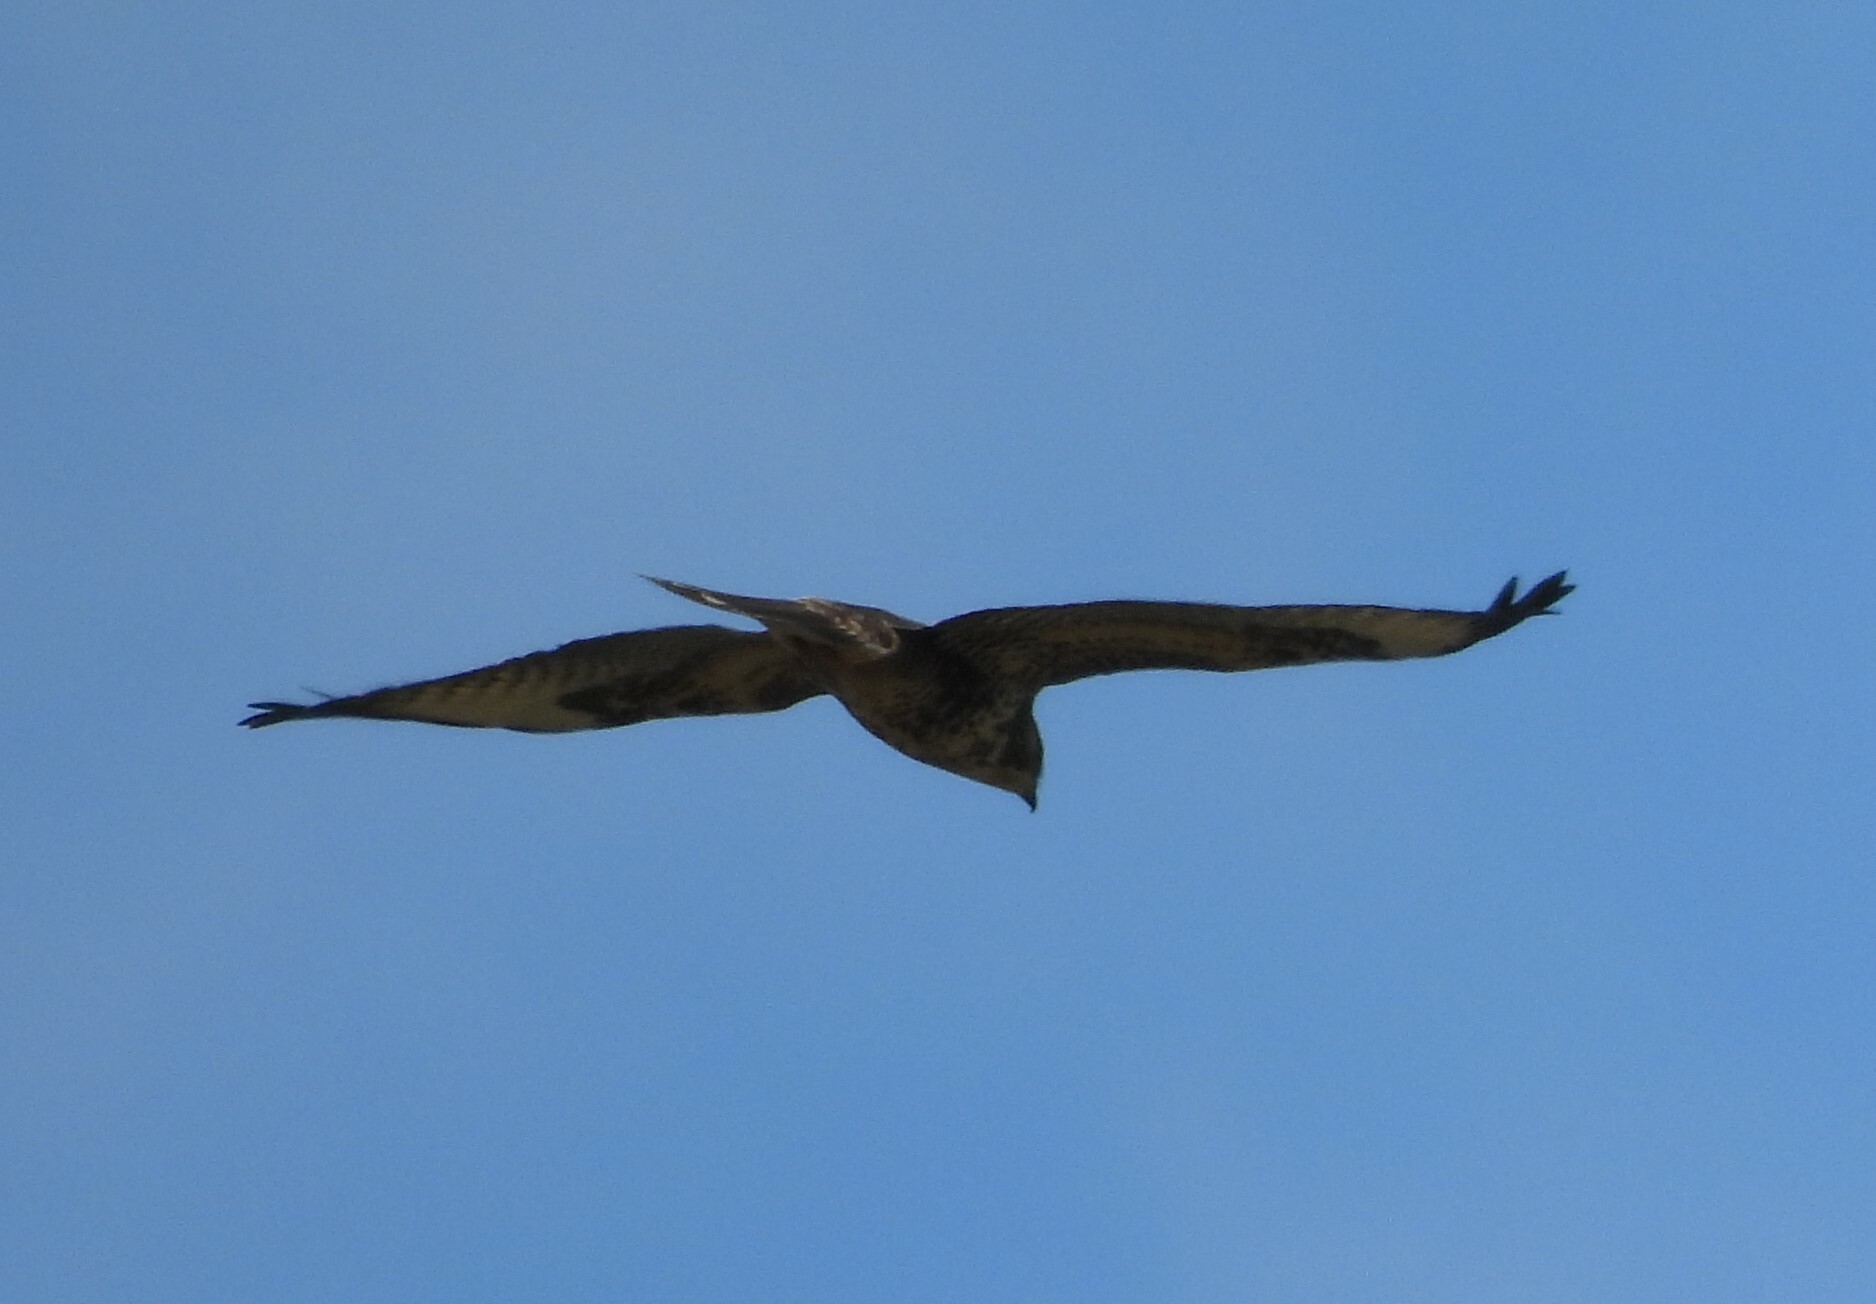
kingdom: Animalia
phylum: Chordata
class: Aves
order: Accipitriformes
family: Accipitridae
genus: Buteo
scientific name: Buteo buteo
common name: Common buzzard
